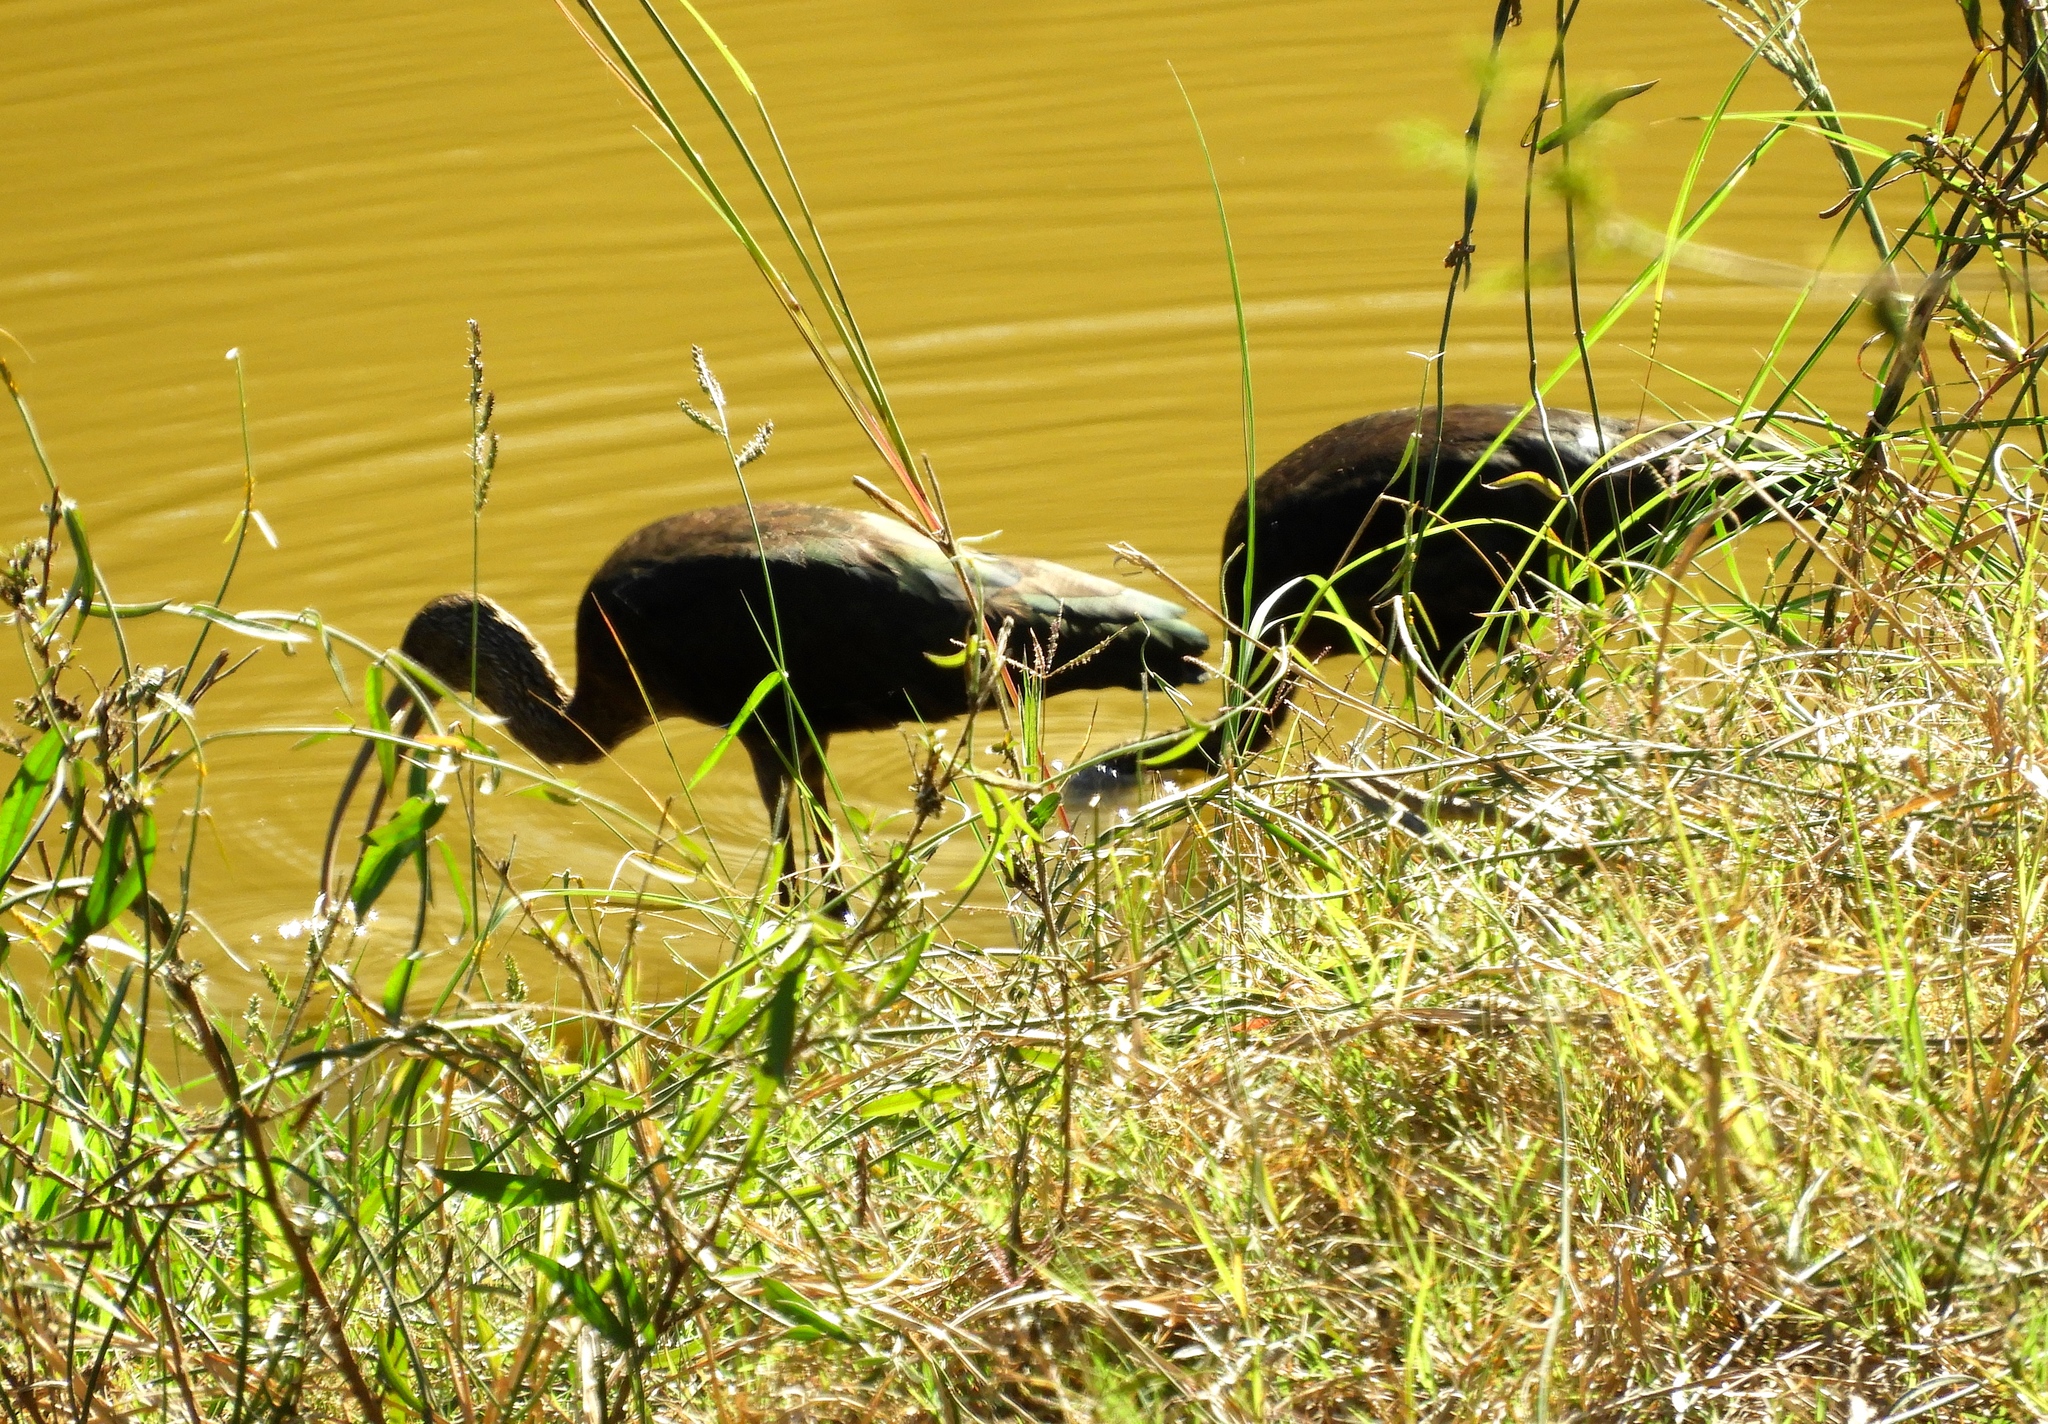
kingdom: Animalia
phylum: Chordata
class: Aves
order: Pelecaniformes
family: Threskiornithidae
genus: Plegadis
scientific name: Plegadis
